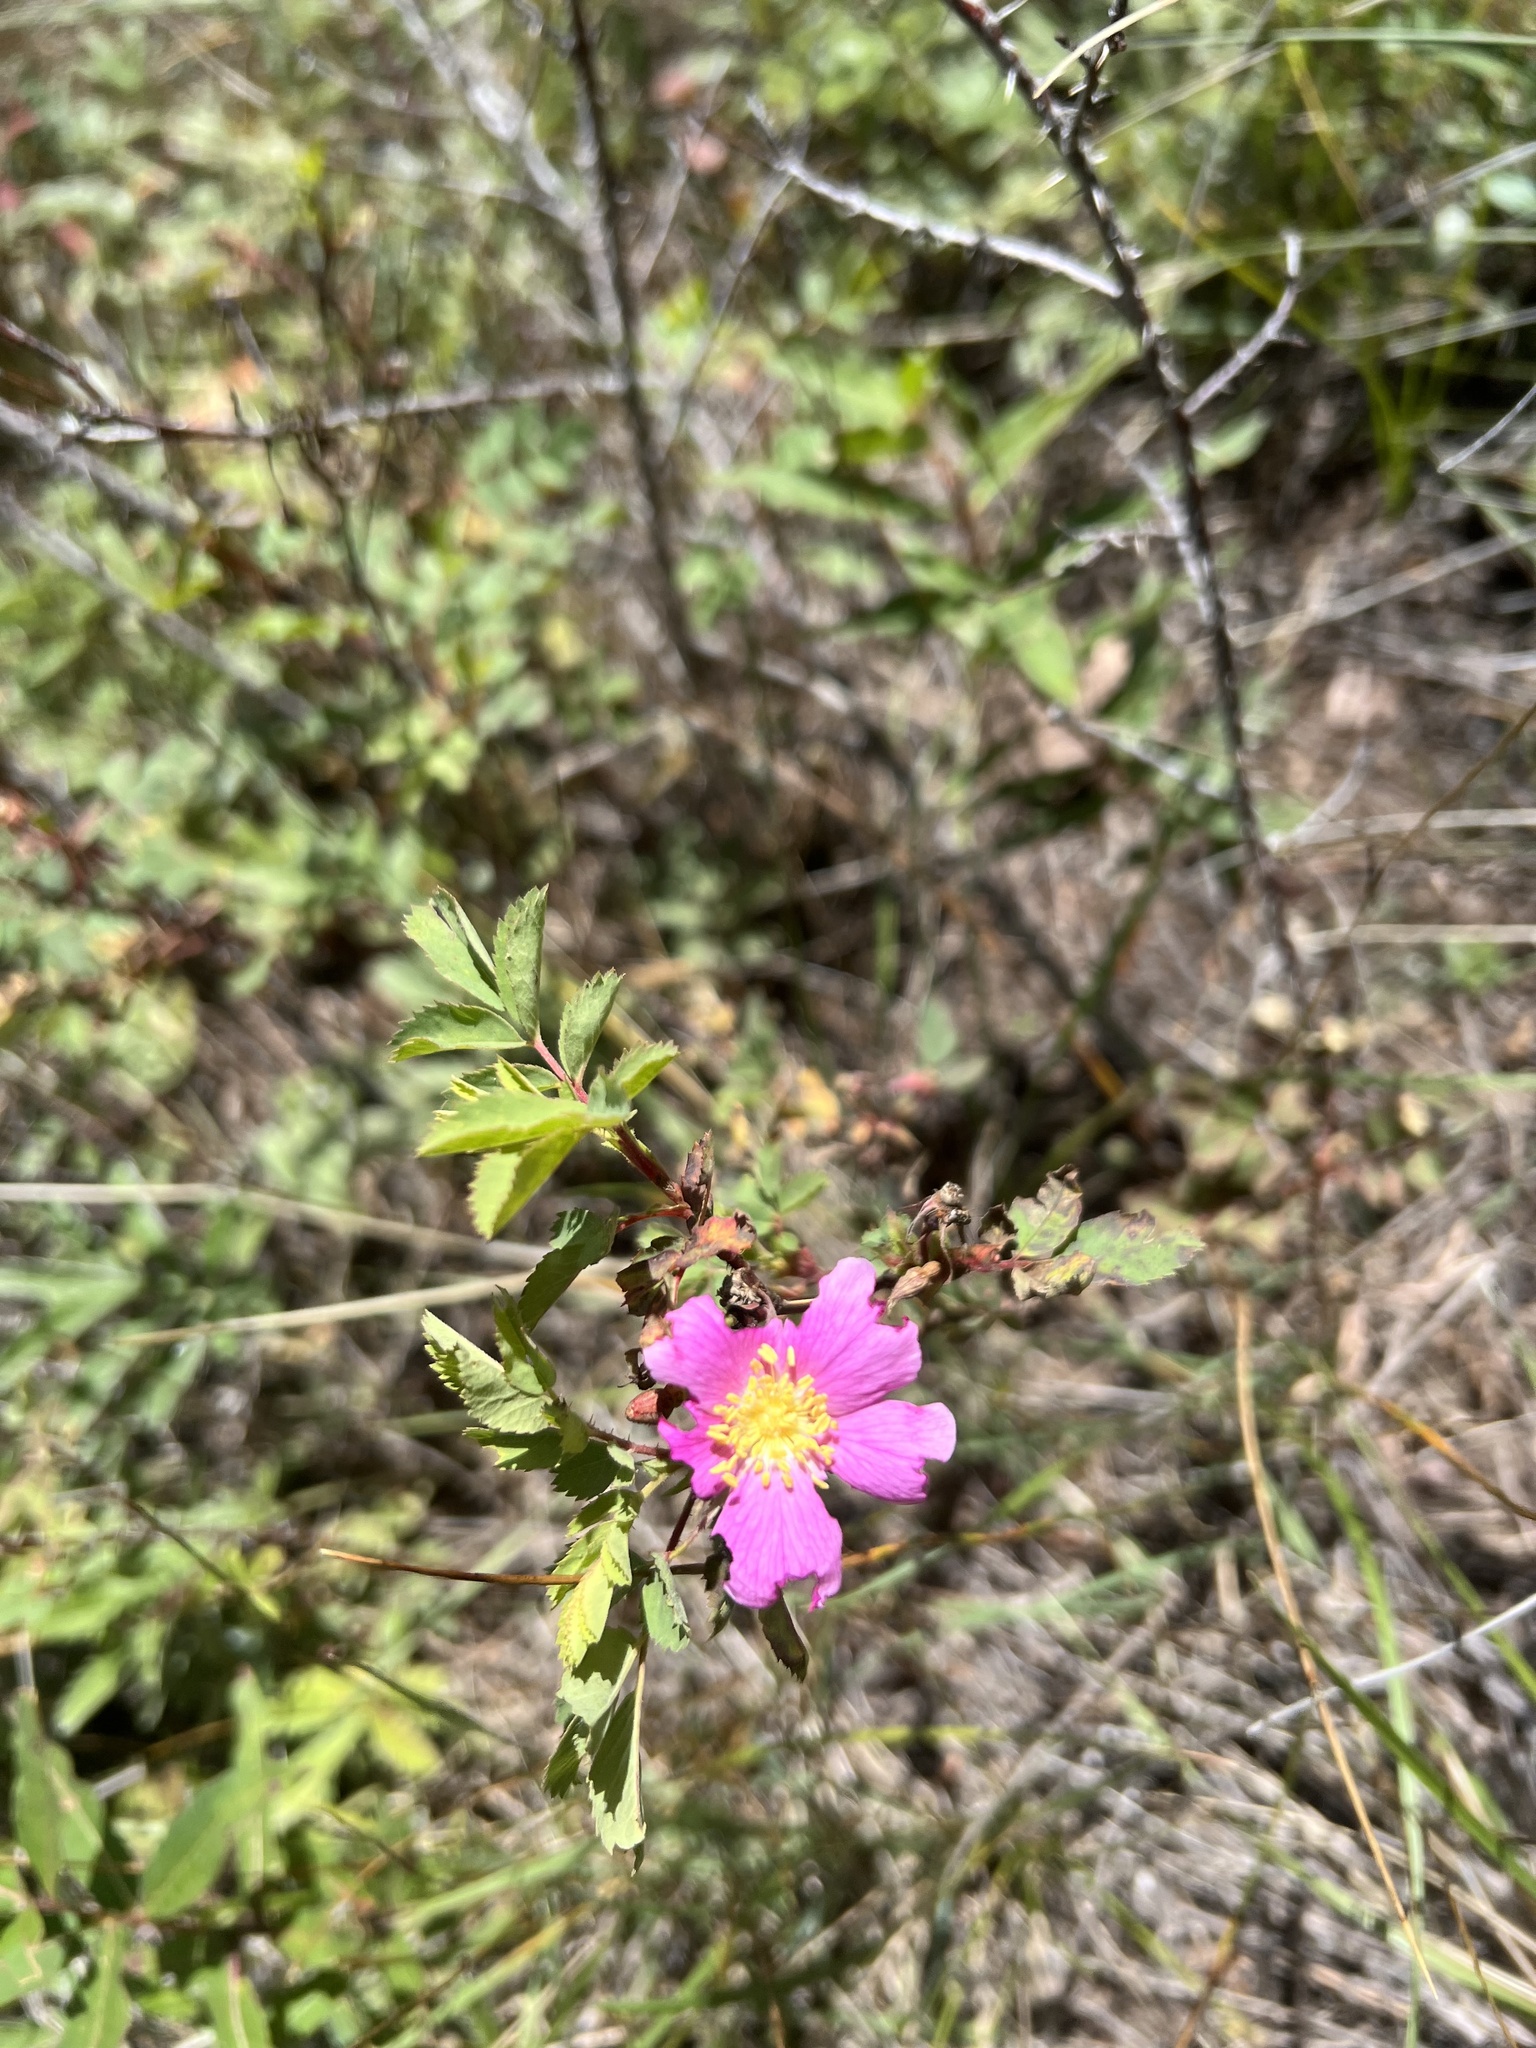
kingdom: Plantae
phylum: Tracheophyta
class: Magnoliopsida
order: Rosales
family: Rosaceae
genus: Rosa
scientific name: Rosa woodsii
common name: Woods's rose
